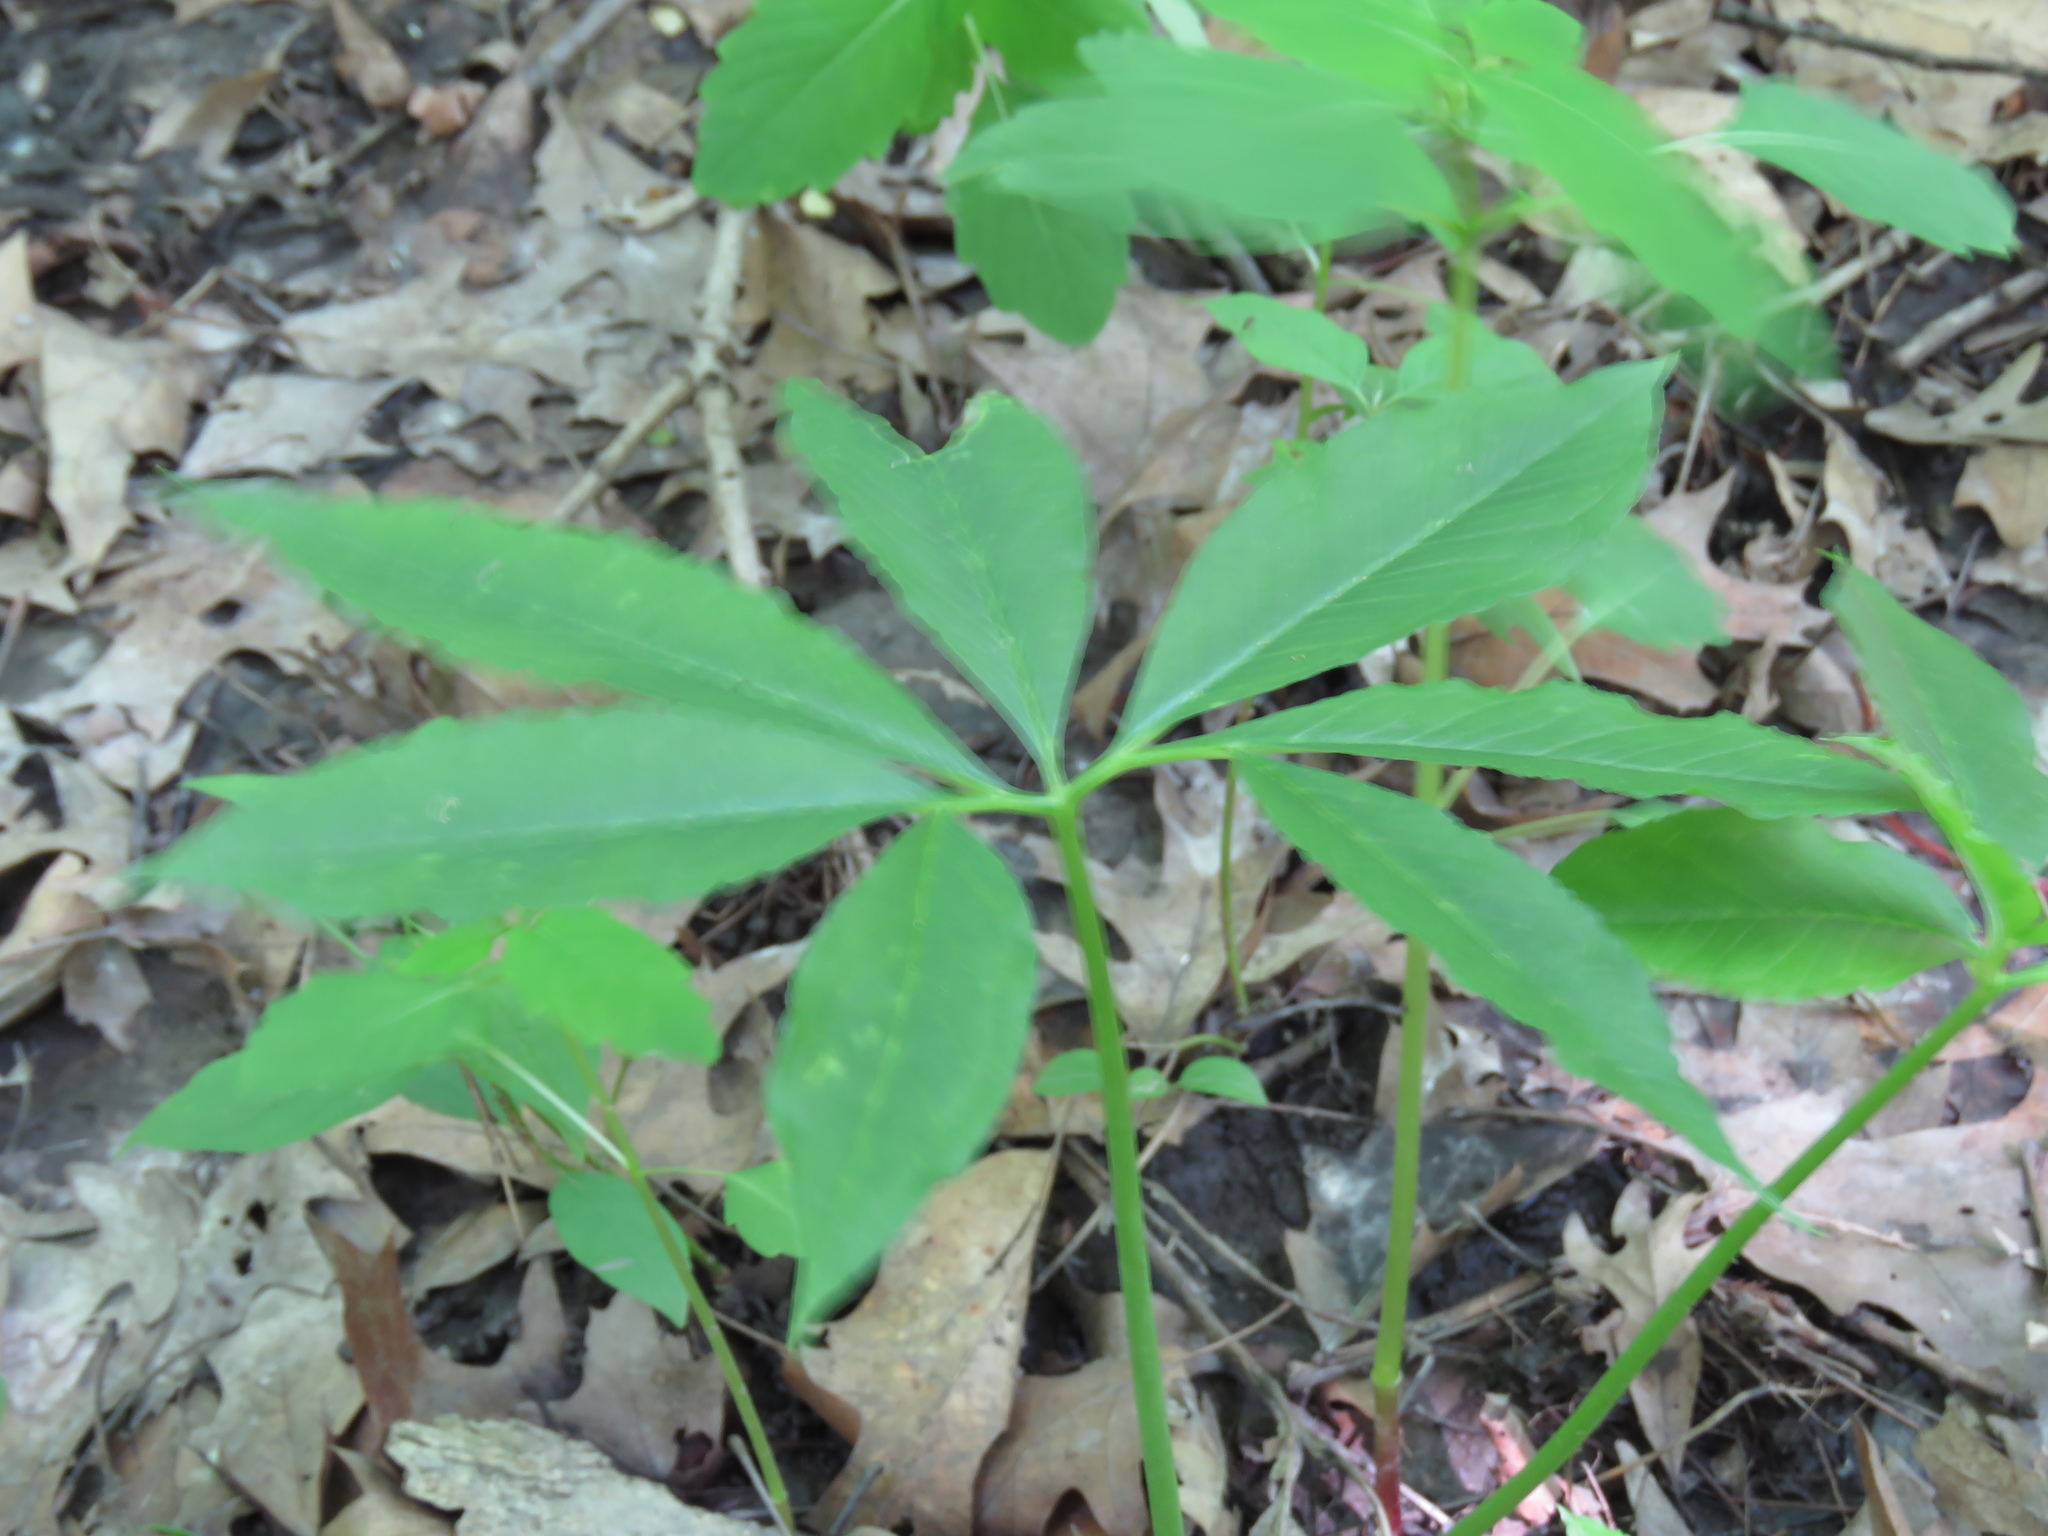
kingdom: Plantae
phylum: Tracheophyta
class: Liliopsida
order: Alismatales
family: Araceae
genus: Arisaema
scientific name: Arisaema dracontium
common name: Dragon-arum
